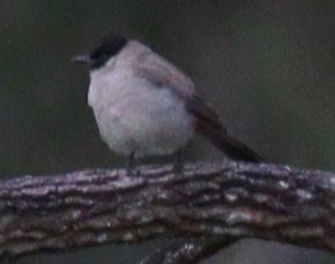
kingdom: Animalia
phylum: Chordata
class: Aves
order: Passeriformes
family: Pycnonotidae
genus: Pycnonotus
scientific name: Pycnonotus aurigaster
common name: Sooty-headed bulbul
